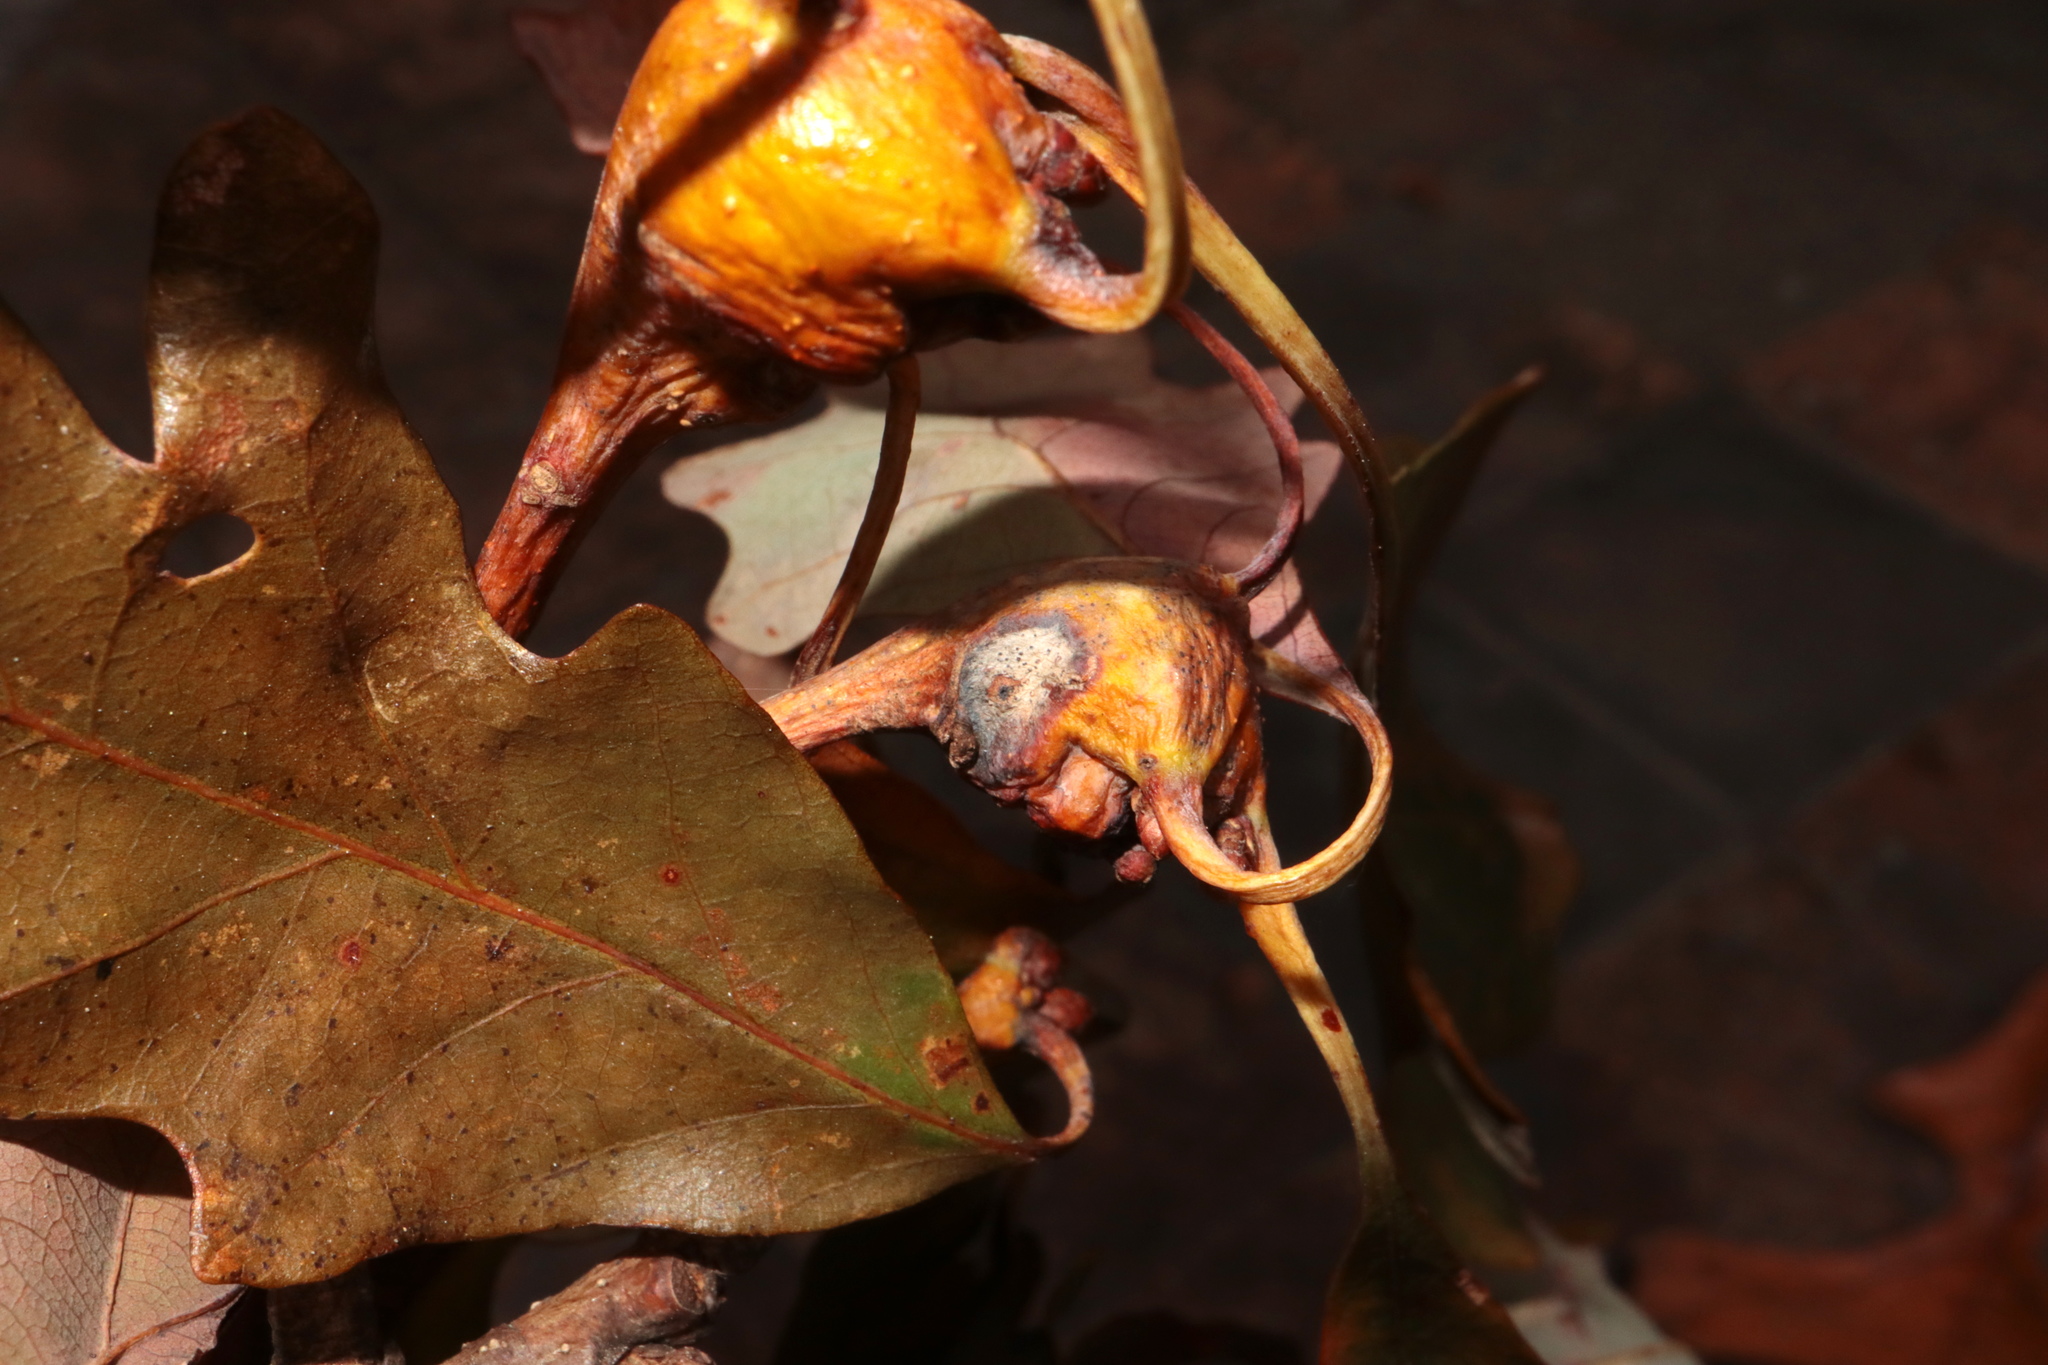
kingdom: Animalia
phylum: Arthropoda
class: Insecta
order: Hymenoptera
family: Cynipidae
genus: Callirhytis
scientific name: Callirhytis clavula
